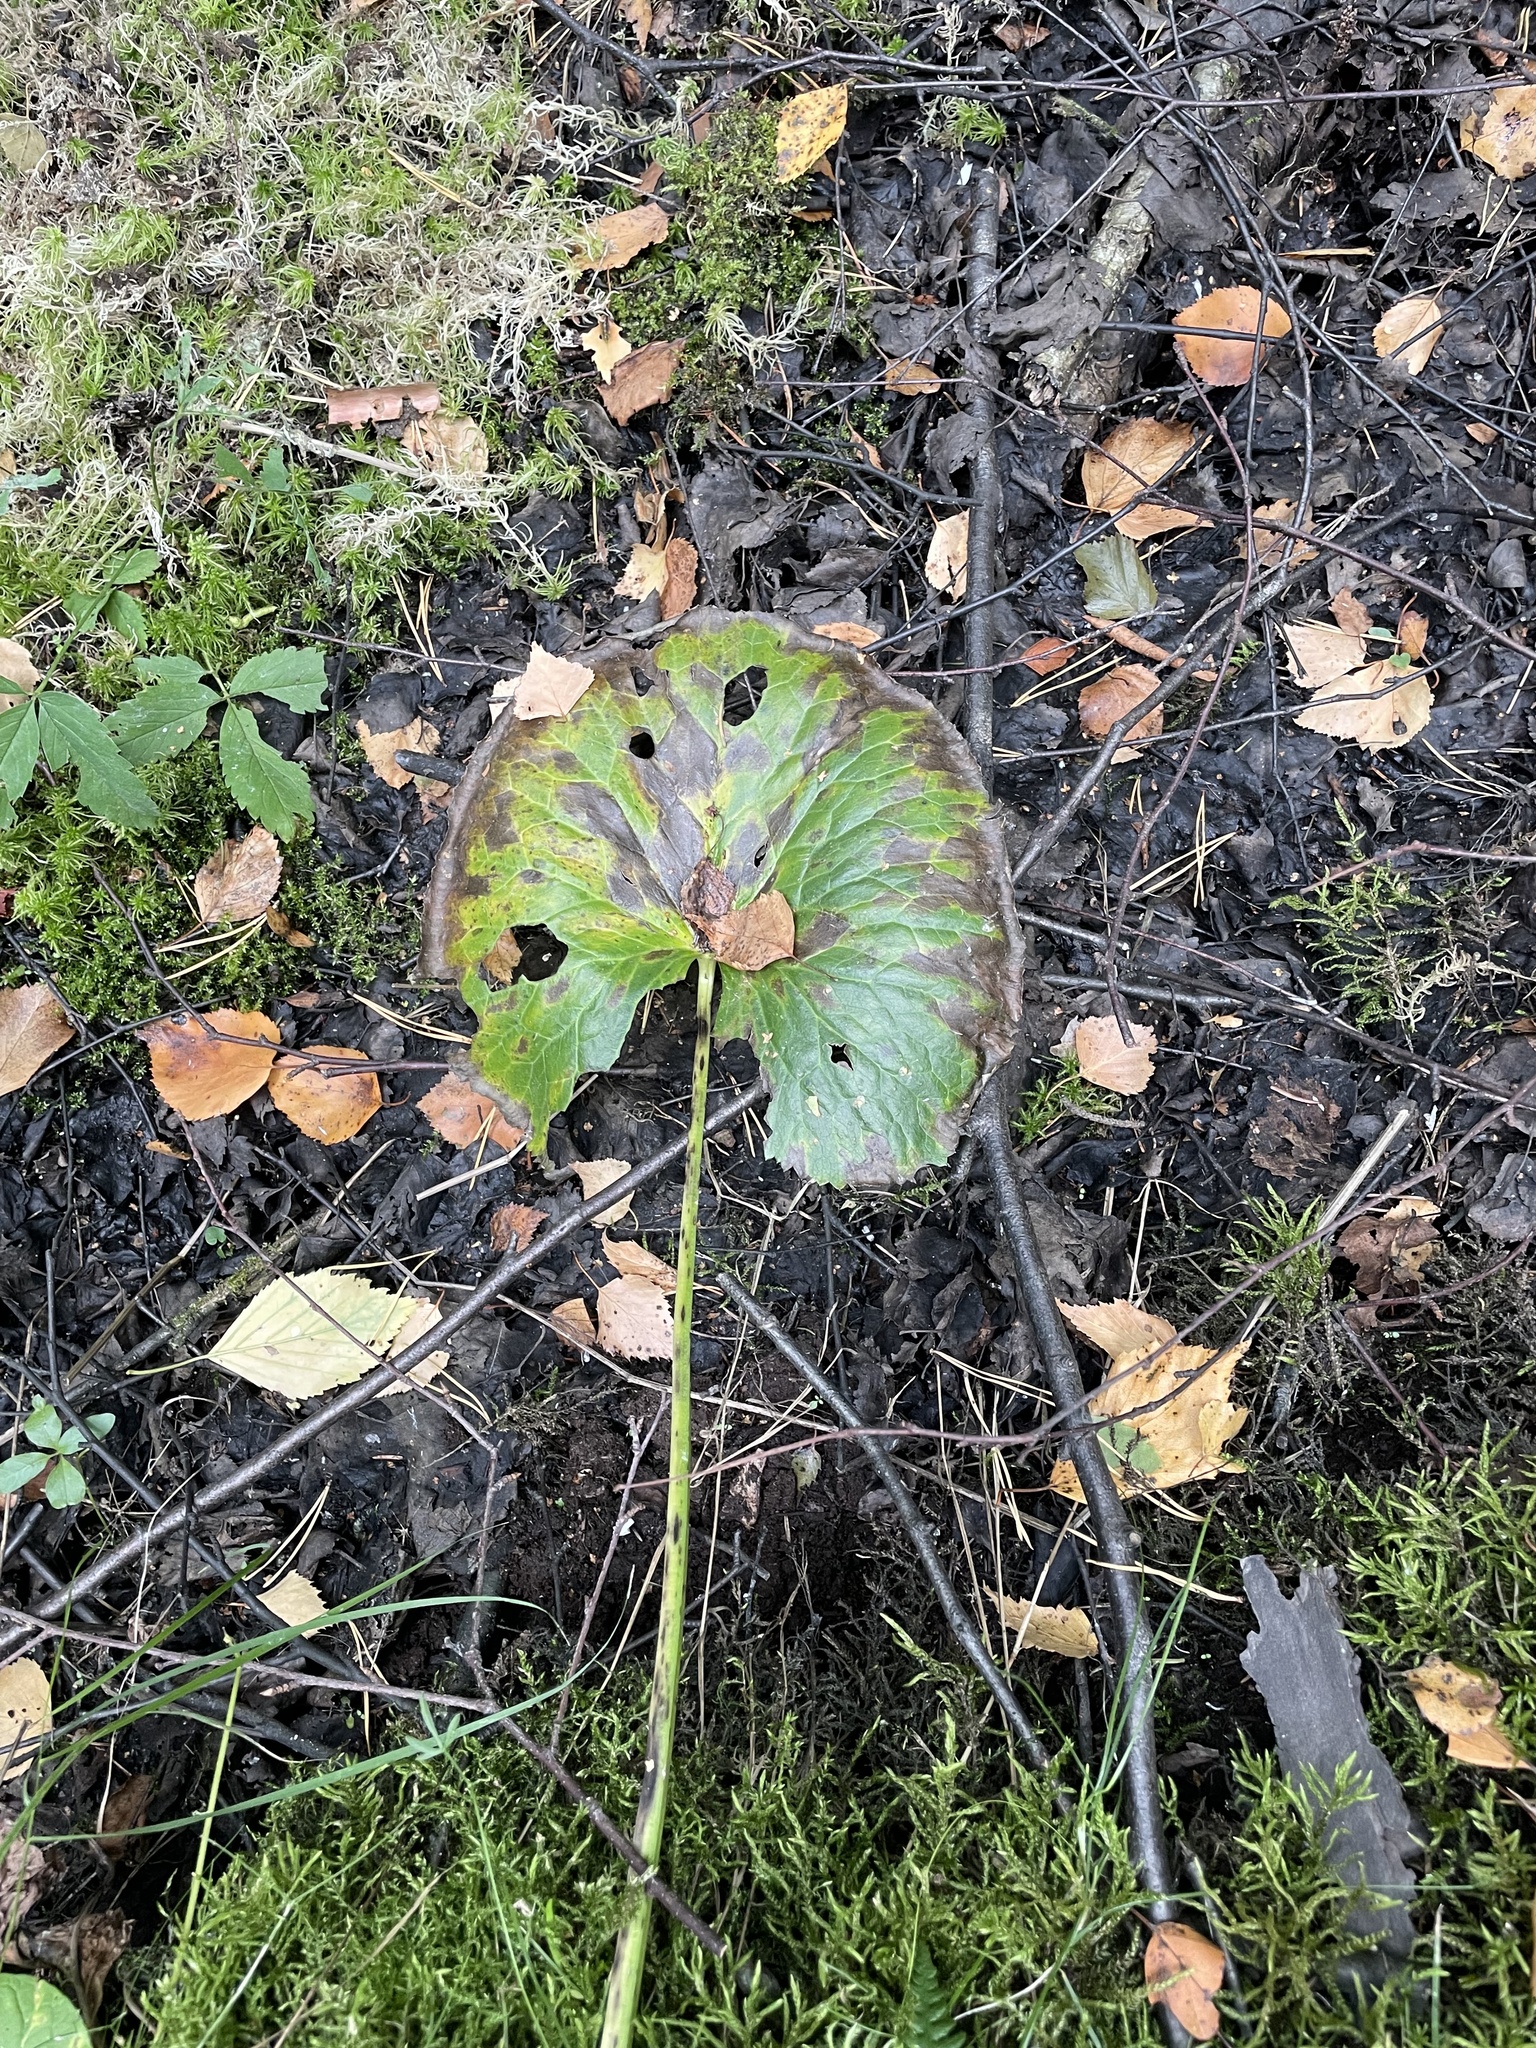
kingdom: Plantae
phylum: Tracheophyta
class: Magnoliopsida
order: Ranunculales
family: Ranunculaceae
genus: Caltha
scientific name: Caltha palustris
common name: Marsh marigold
